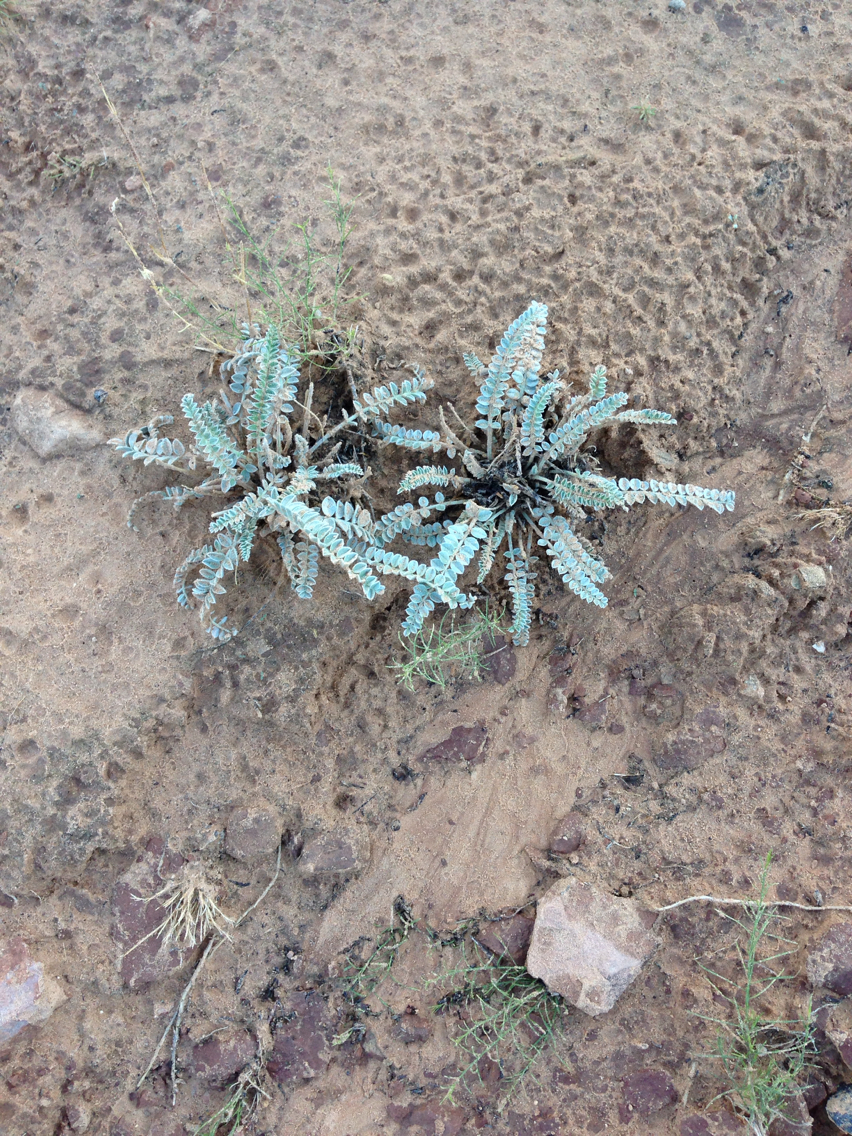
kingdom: Plantae
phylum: Tracheophyta
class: Magnoliopsida
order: Fabales
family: Fabaceae
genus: Astragalus
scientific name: Astragalus mollissimus
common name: Woolly locoweed
